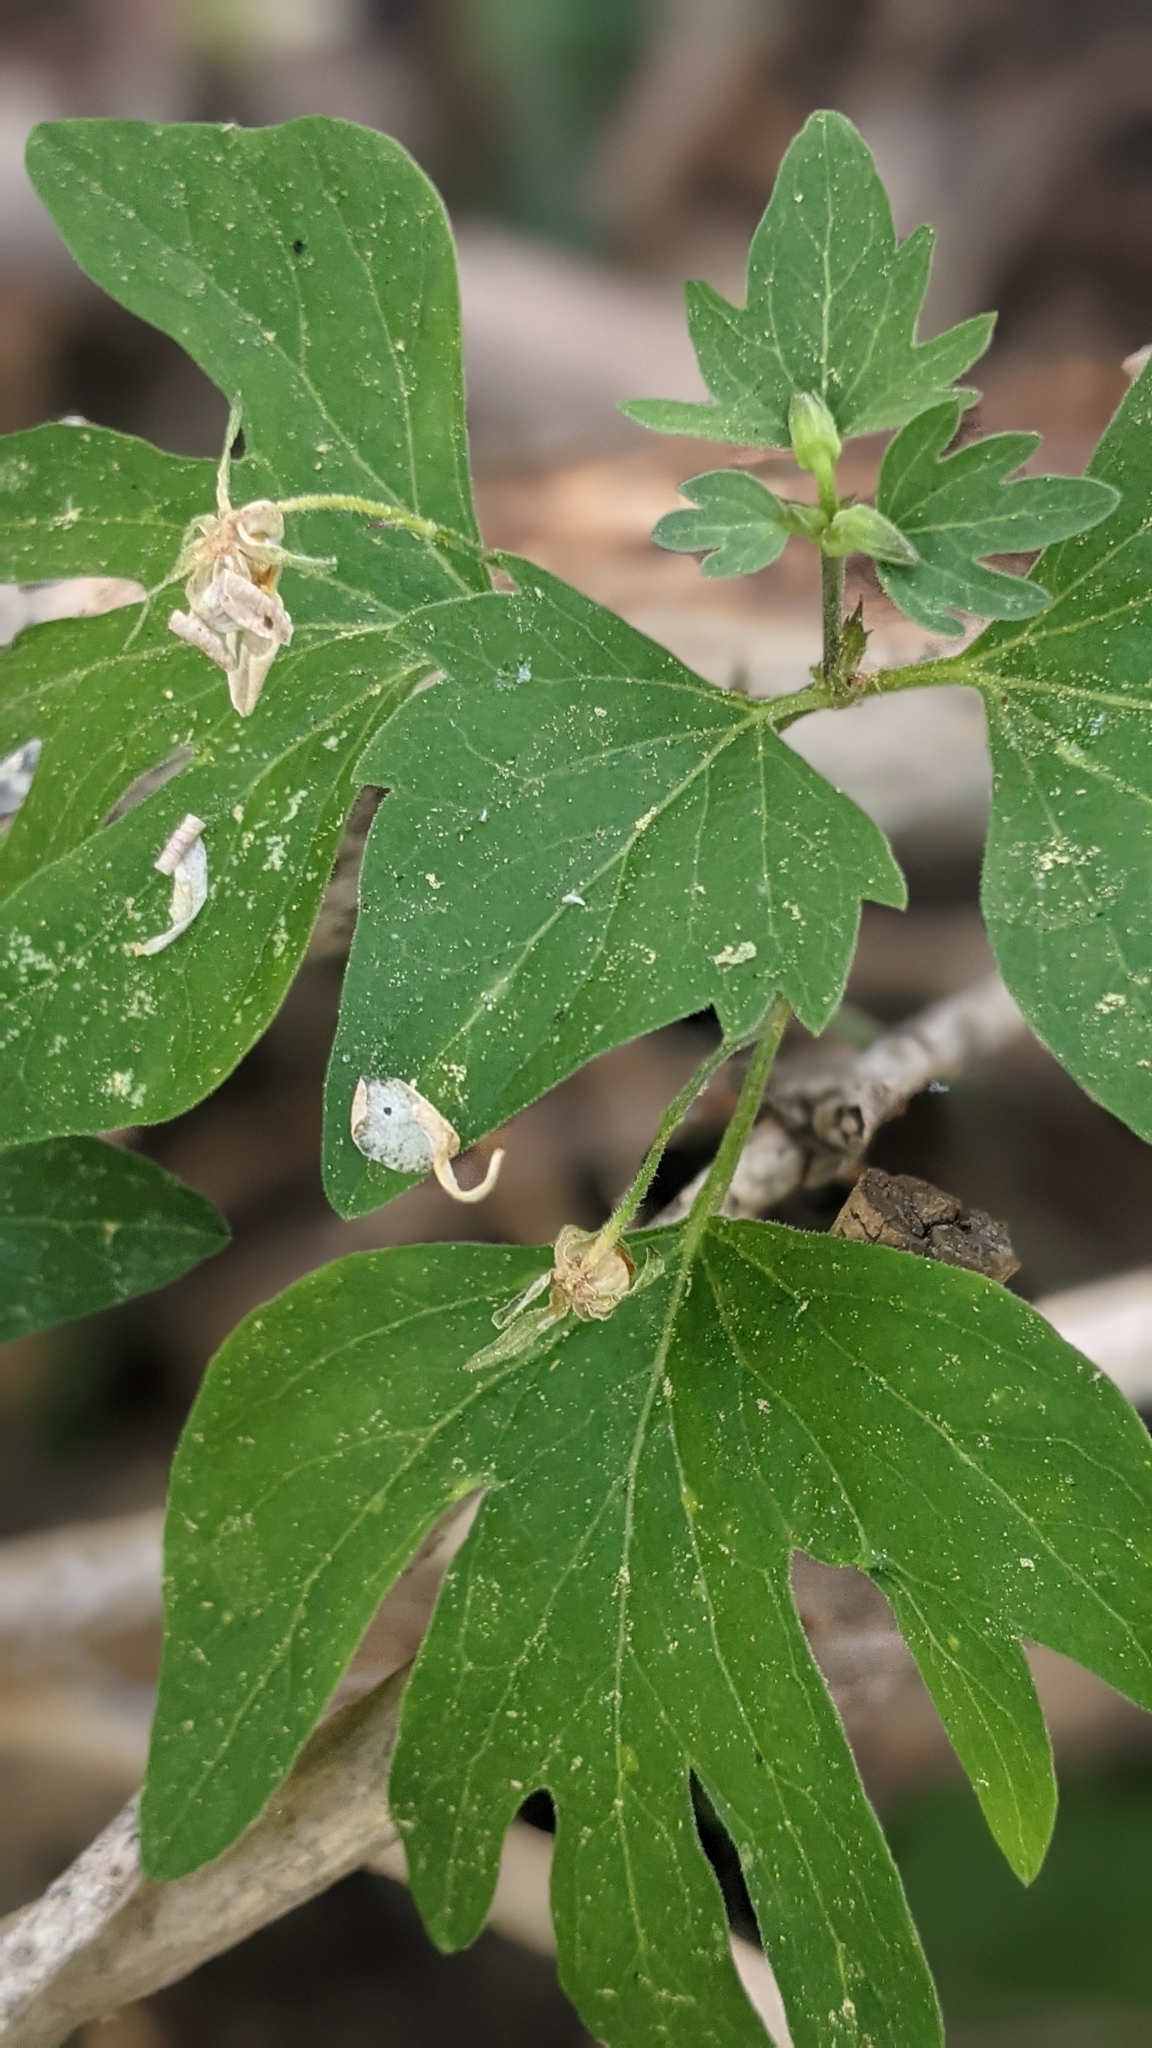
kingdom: Plantae
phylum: Tracheophyta
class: Magnoliopsida
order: Malpighiales
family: Violaceae
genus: Viola
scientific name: Viola lobata
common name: Pine violet
